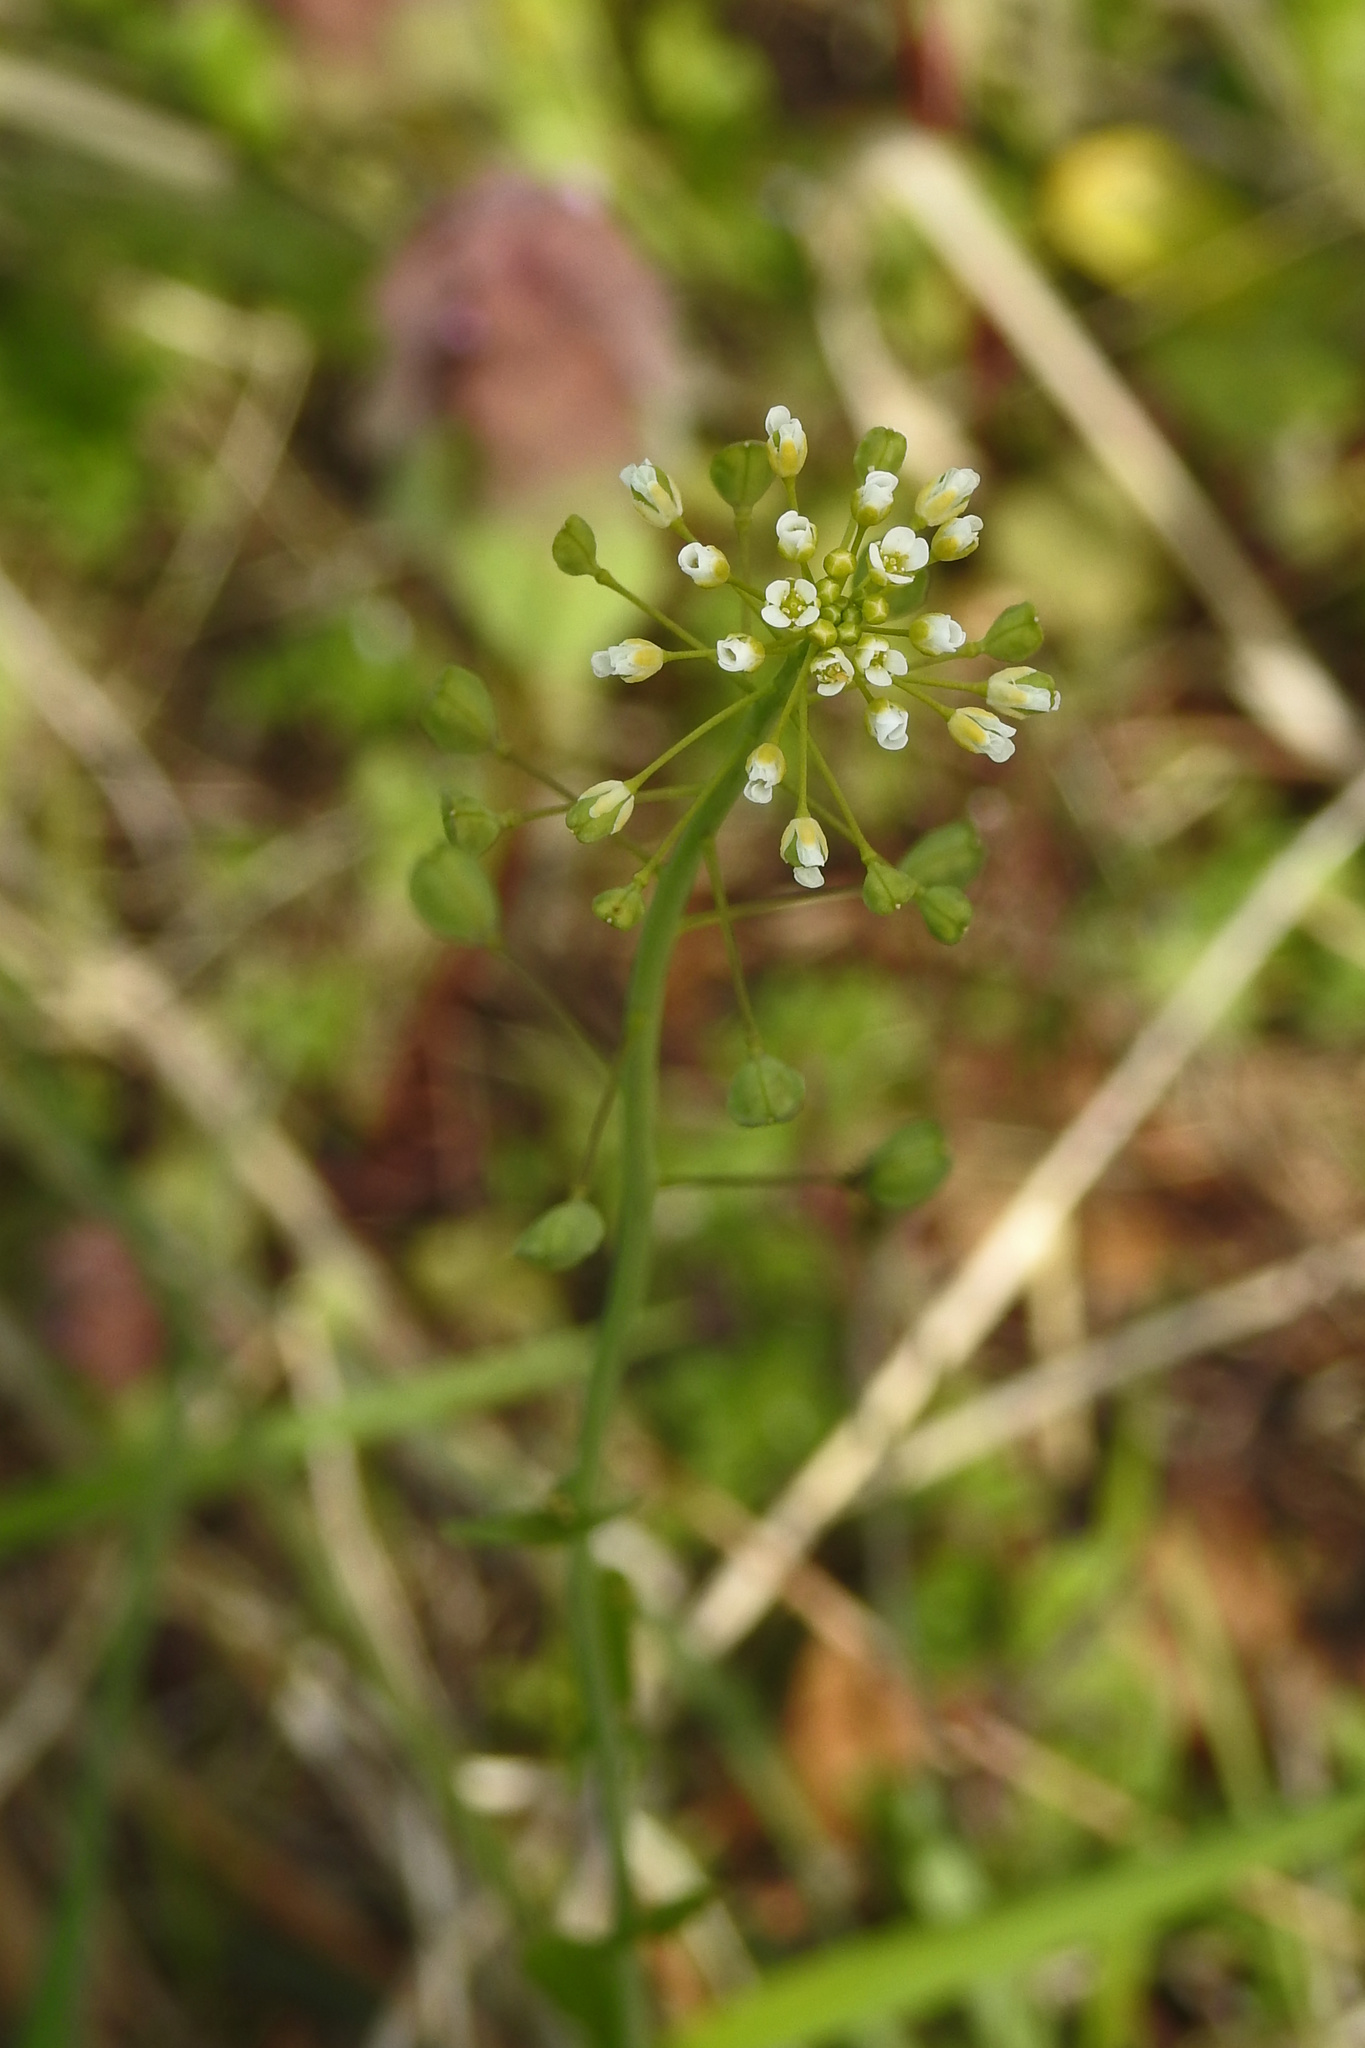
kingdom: Plantae
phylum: Tracheophyta
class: Magnoliopsida
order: Brassicales
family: Brassicaceae
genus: Mummenhoffia
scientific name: Mummenhoffia alliacea
